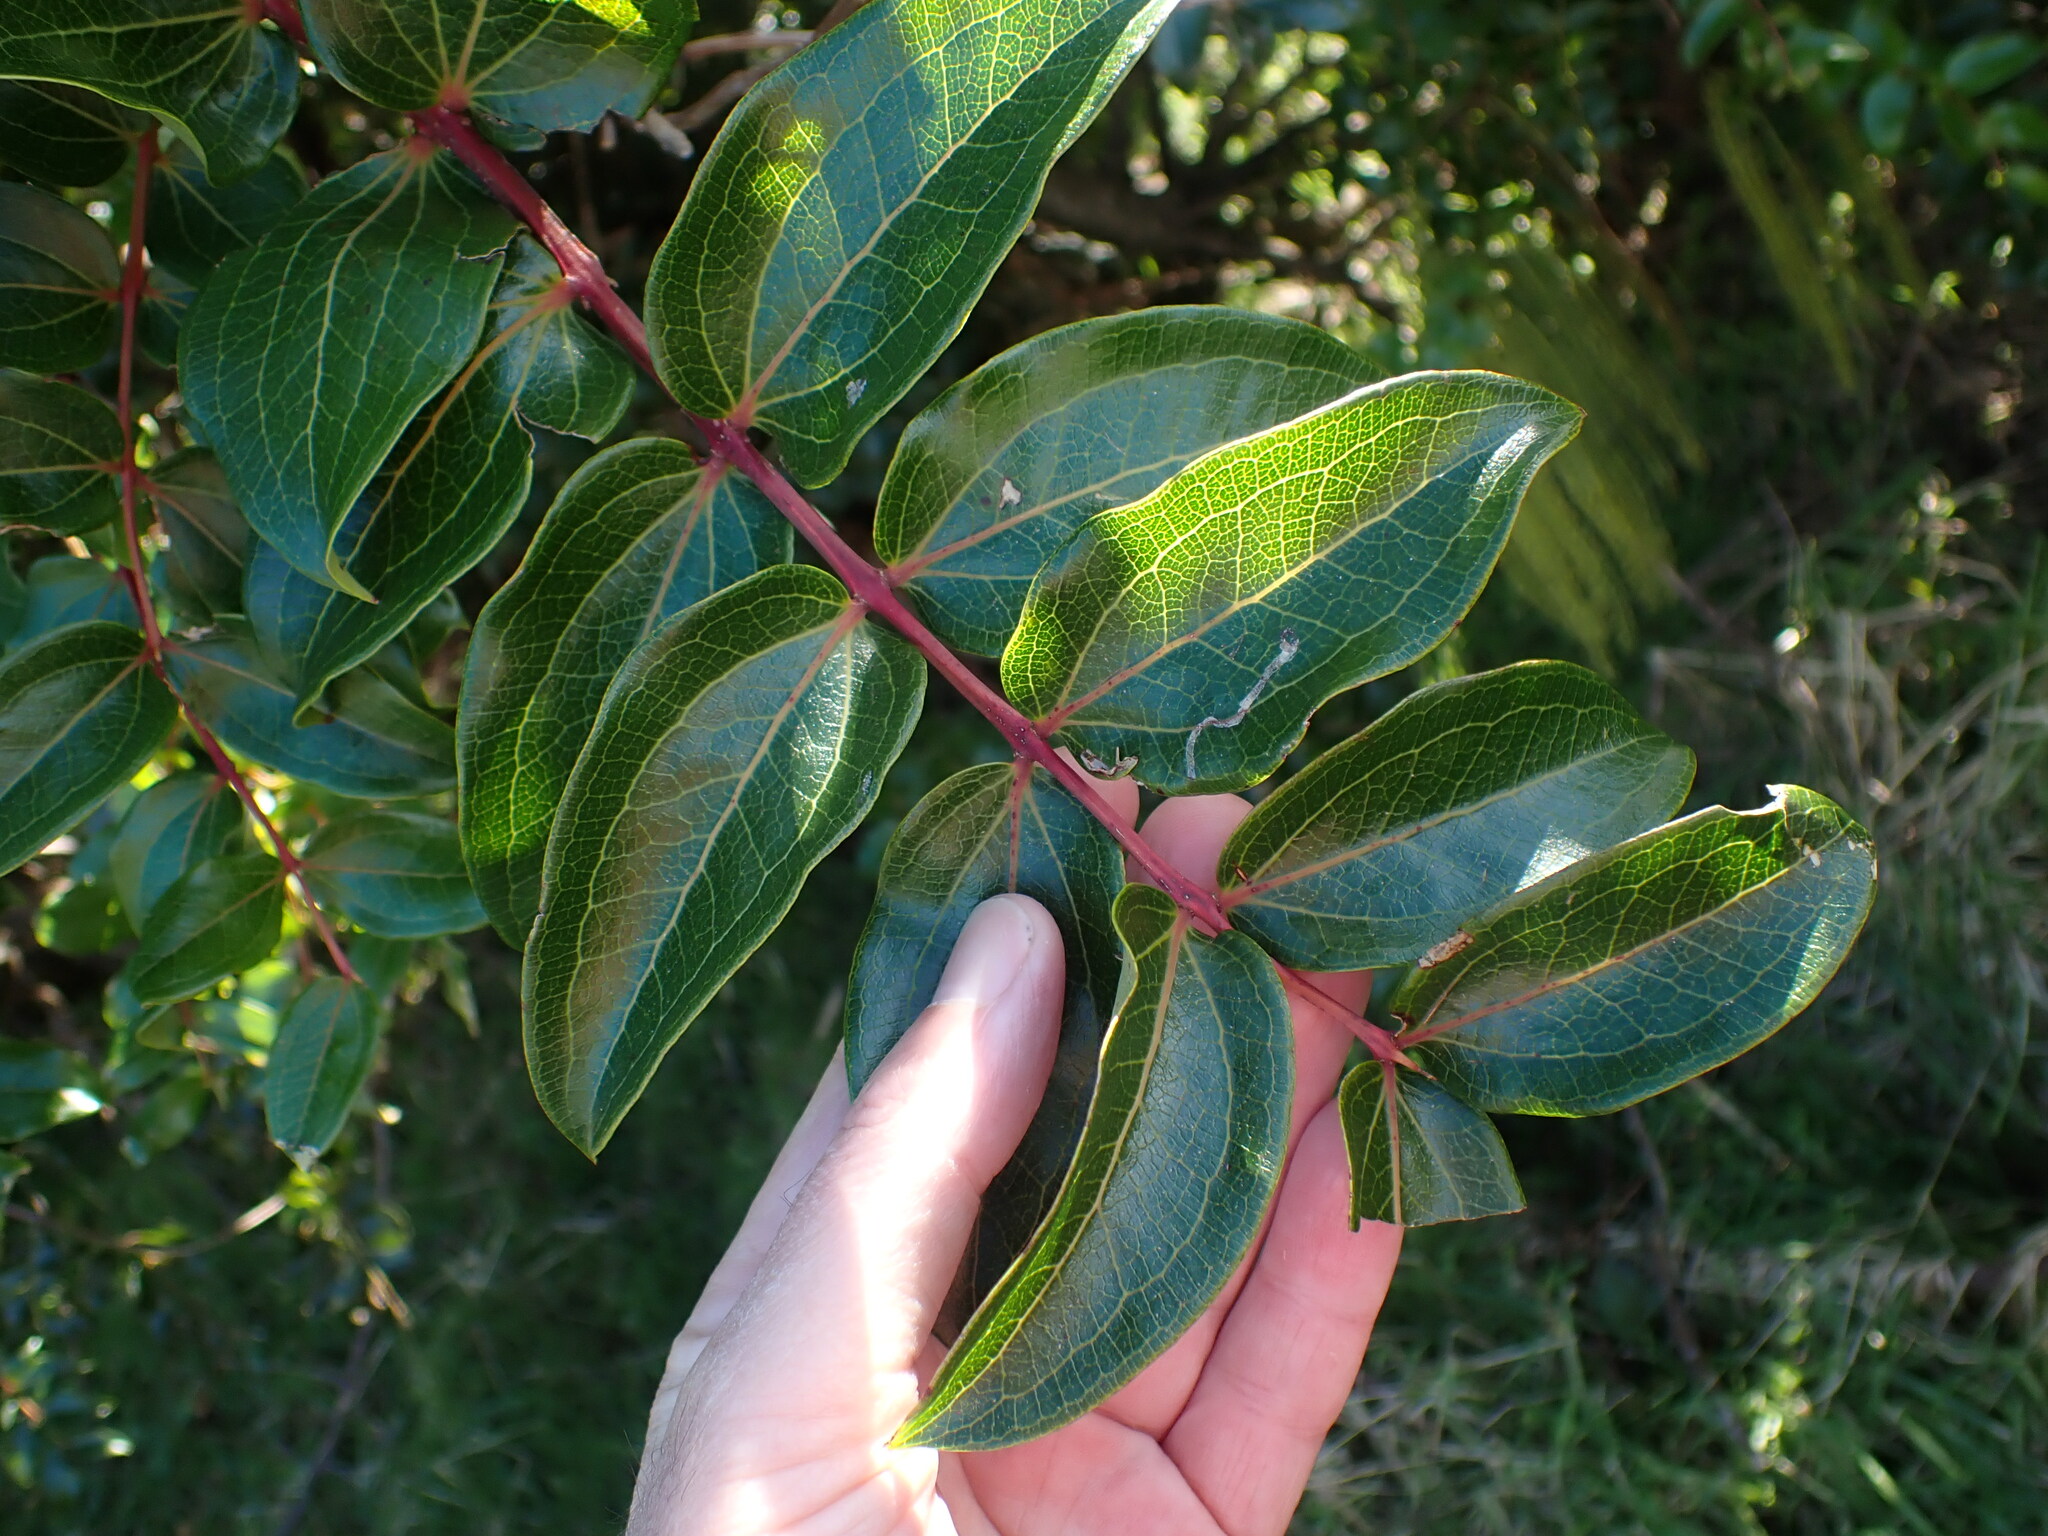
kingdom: Plantae
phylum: Tracheophyta
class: Magnoliopsida
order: Cucurbitales
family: Coriariaceae
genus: Coriaria
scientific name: Coriaria arborea
